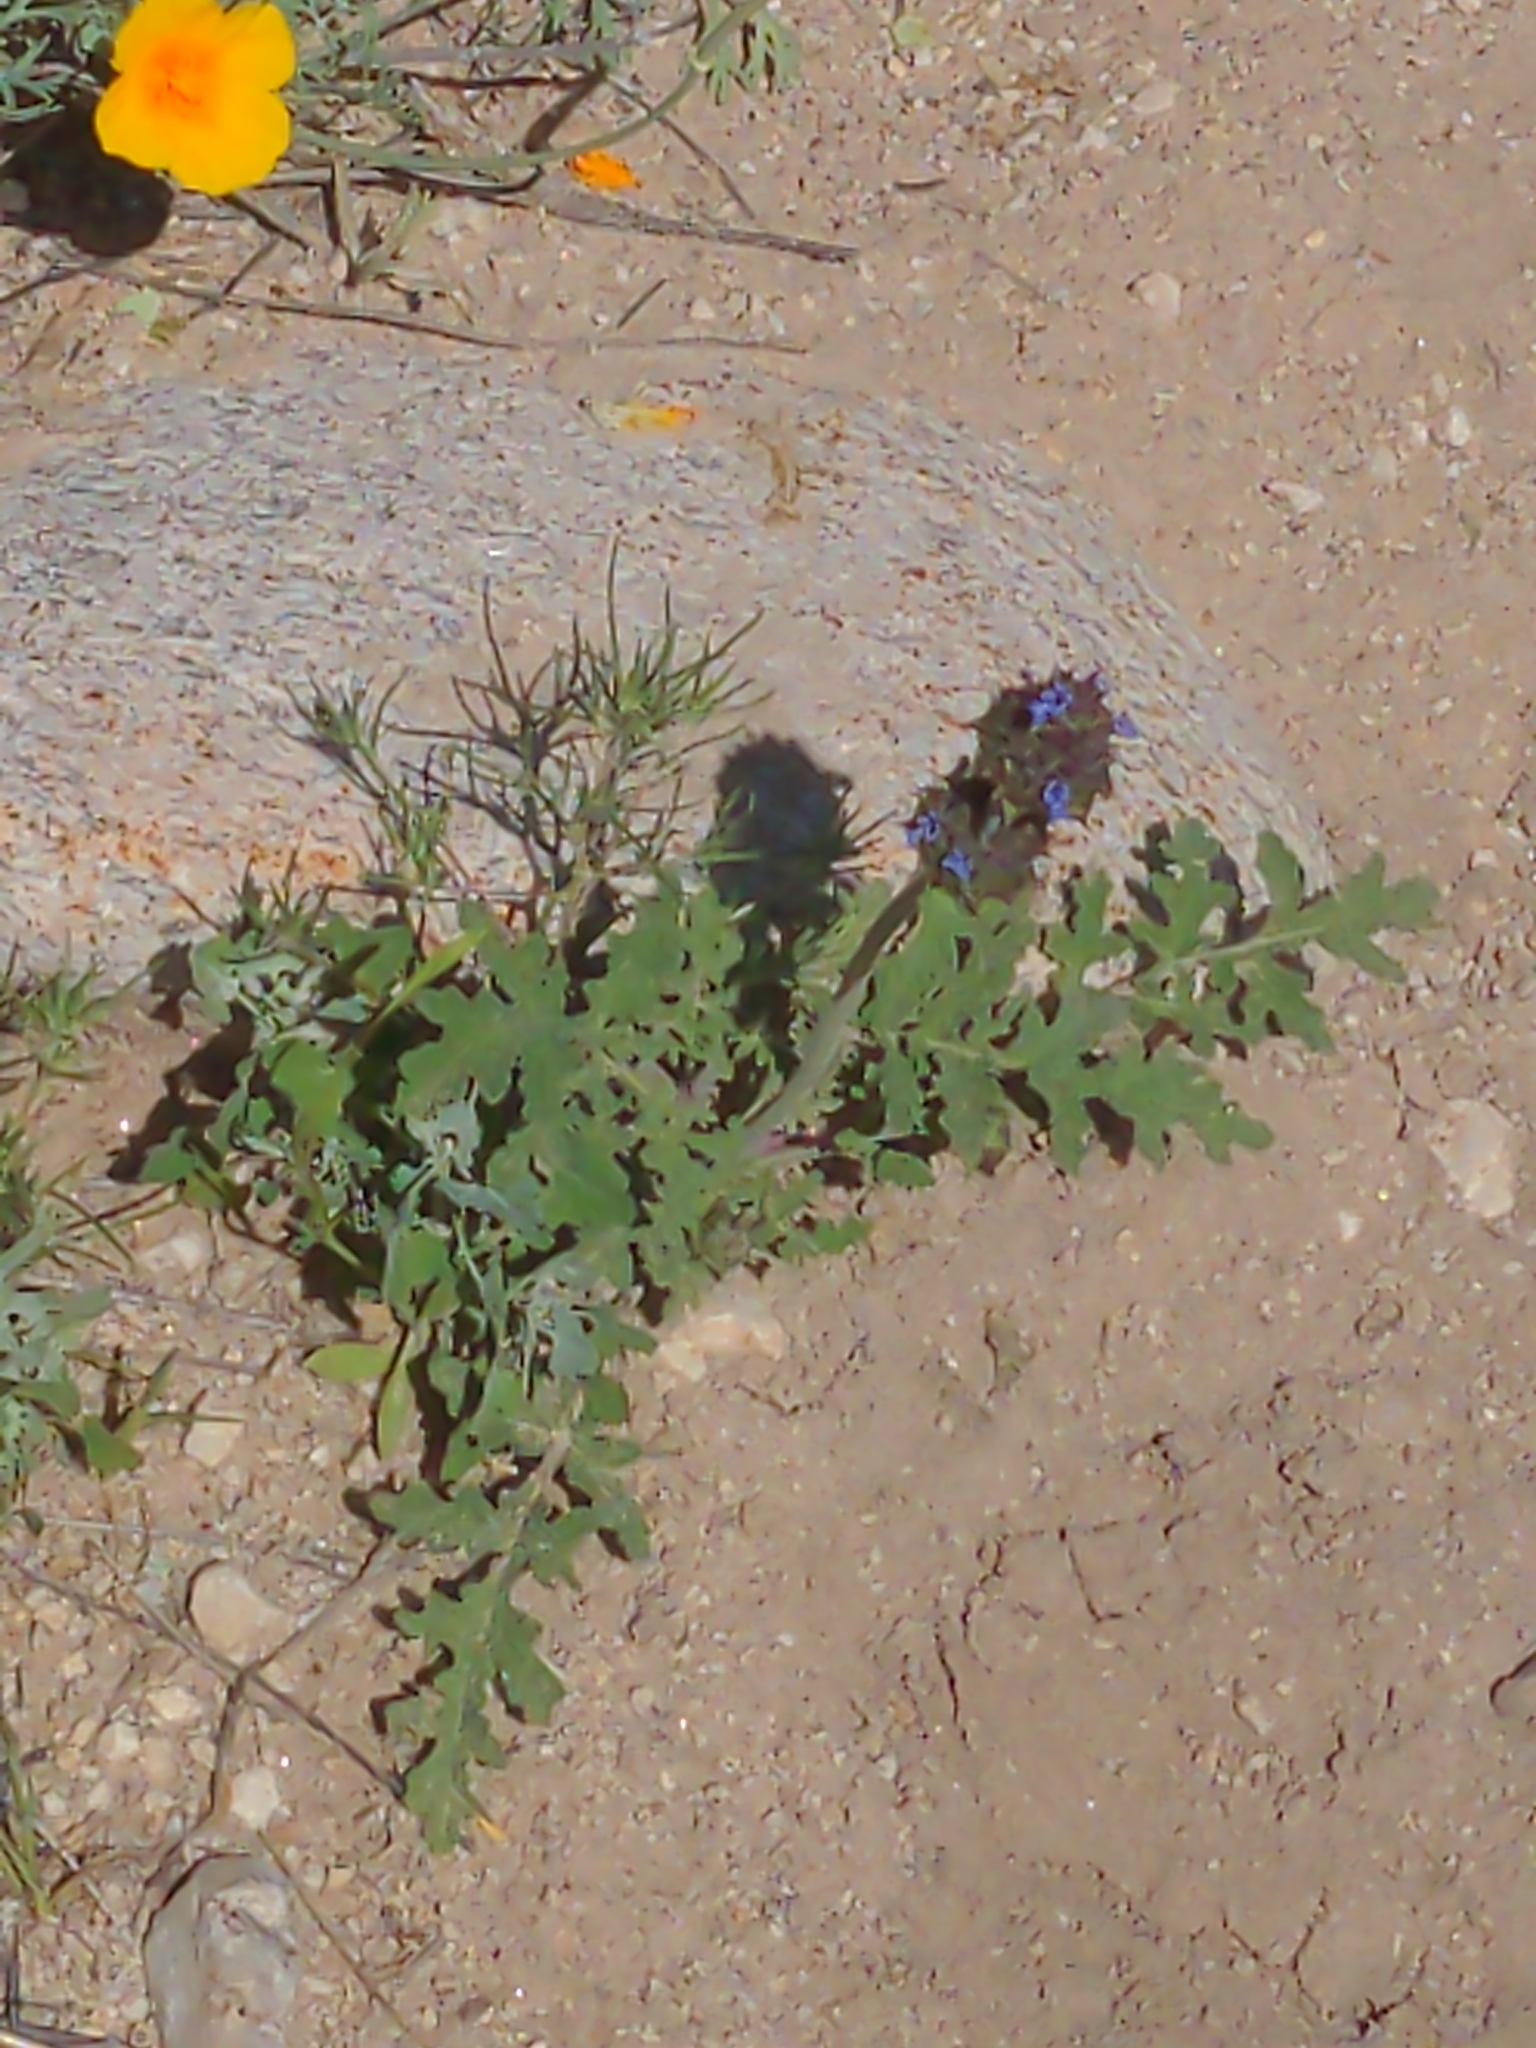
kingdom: Plantae
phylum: Tracheophyta
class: Magnoliopsida
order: Lamiales
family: Lamiaceae
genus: Salvia
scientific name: Salvia columbariae
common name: Chia
